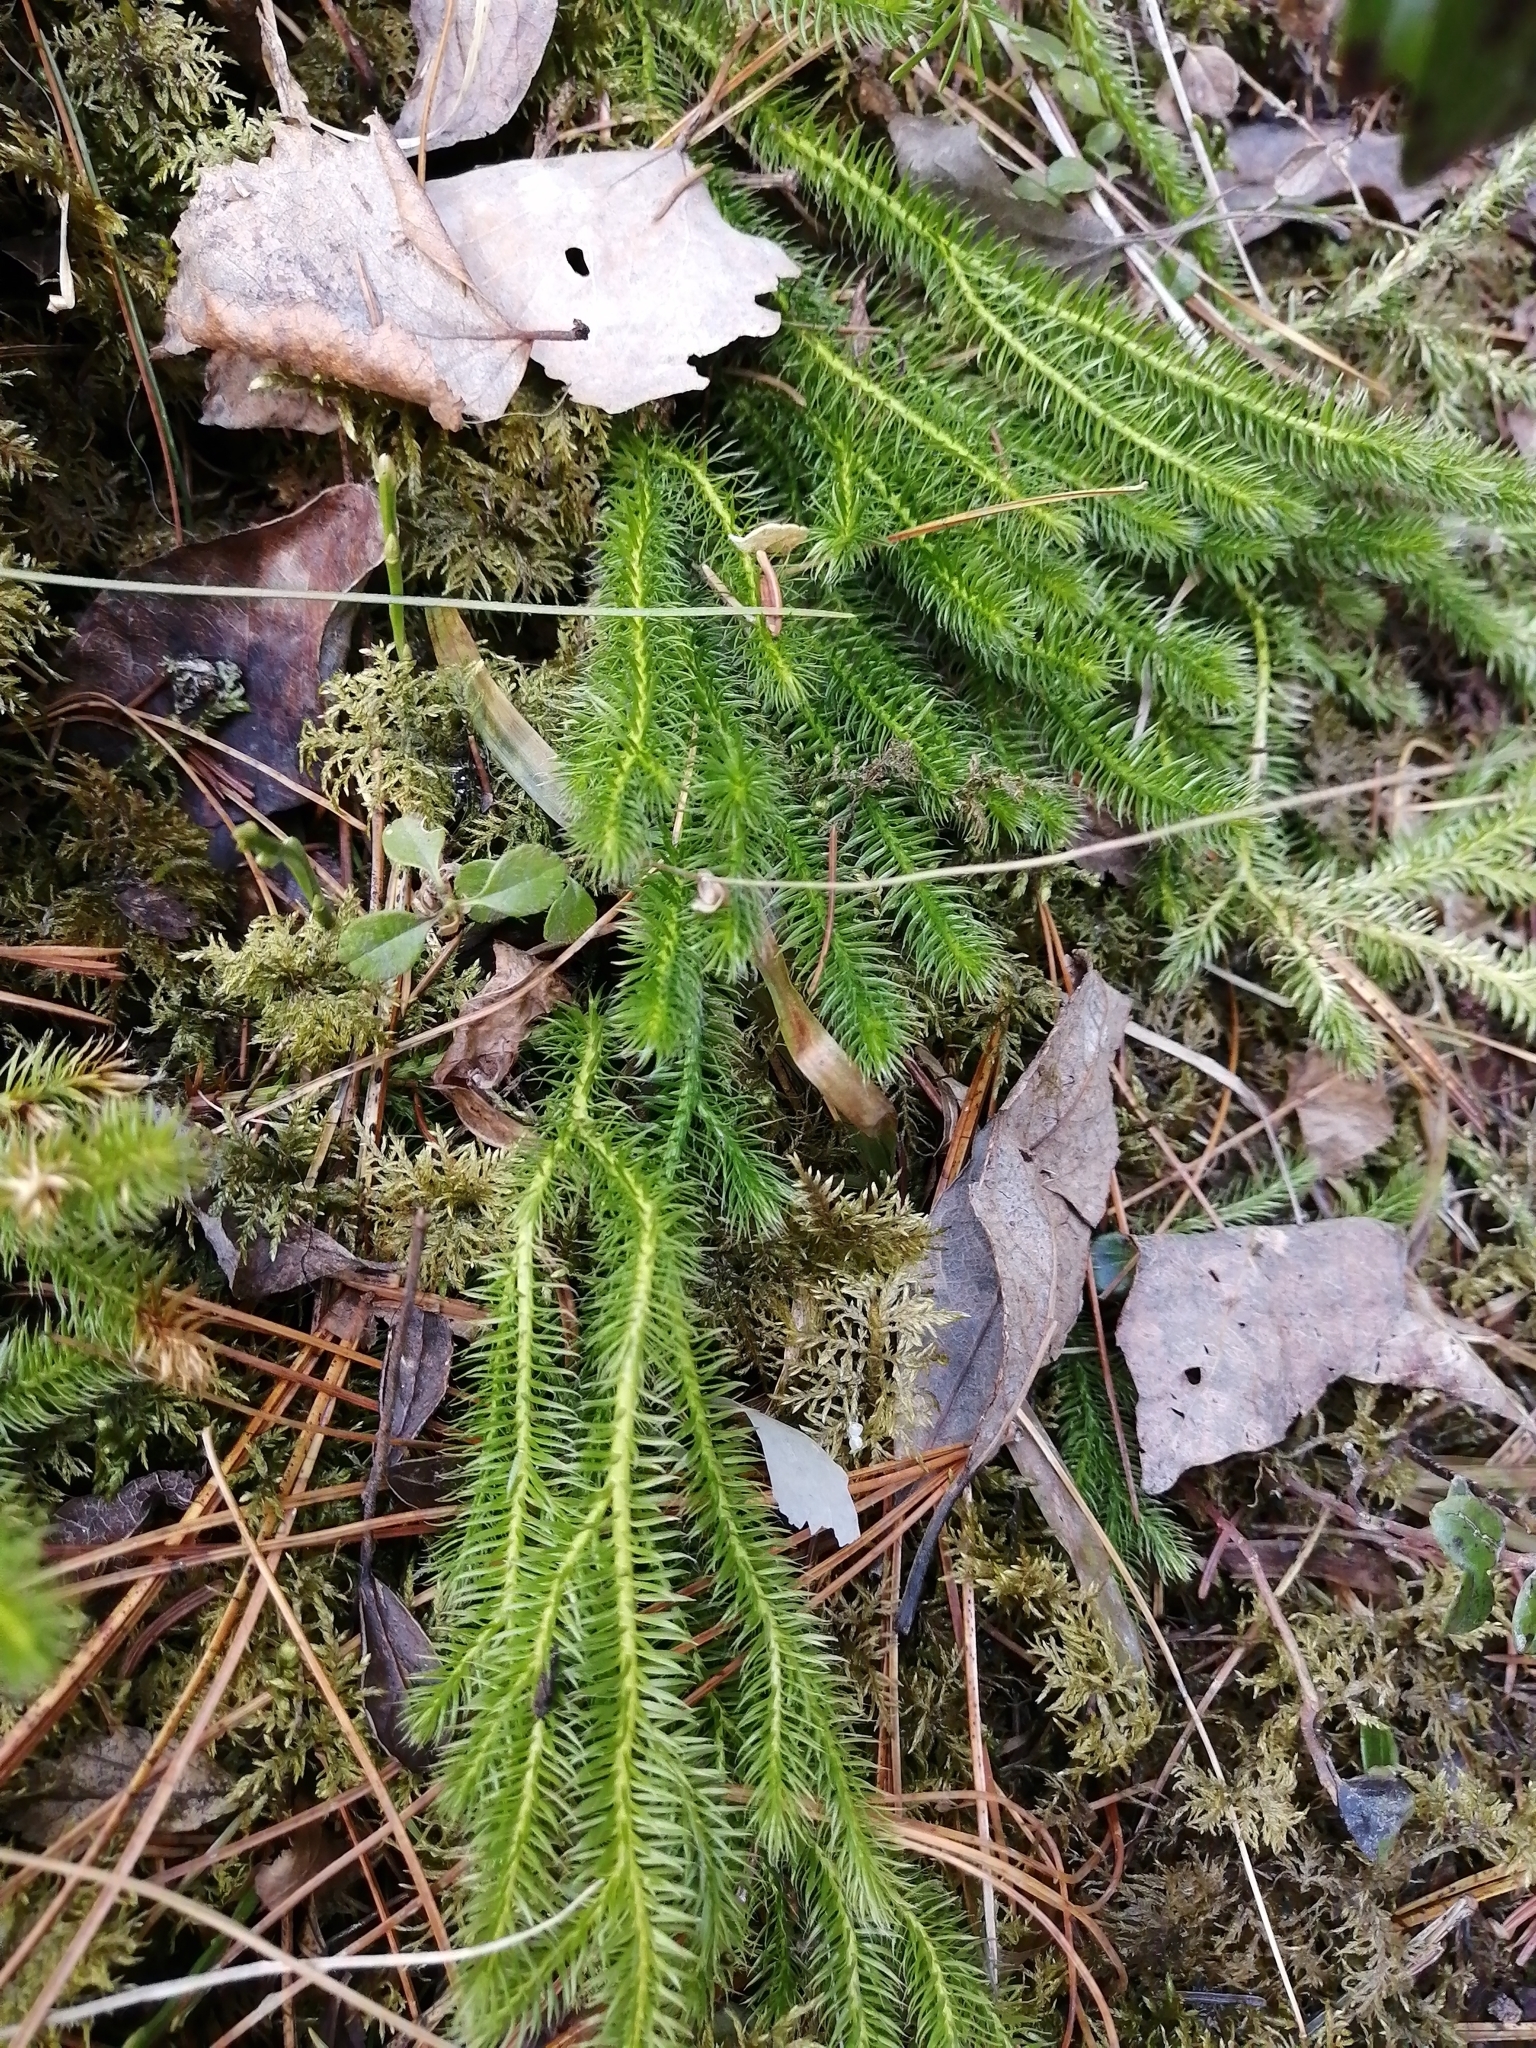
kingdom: Plantae
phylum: Tracheophyta
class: Lycopodiopsida
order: Lycopodiales
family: Lycopodiaceae
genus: Spinulum
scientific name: Spinulum annotinum
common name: Interrupted club-moss
